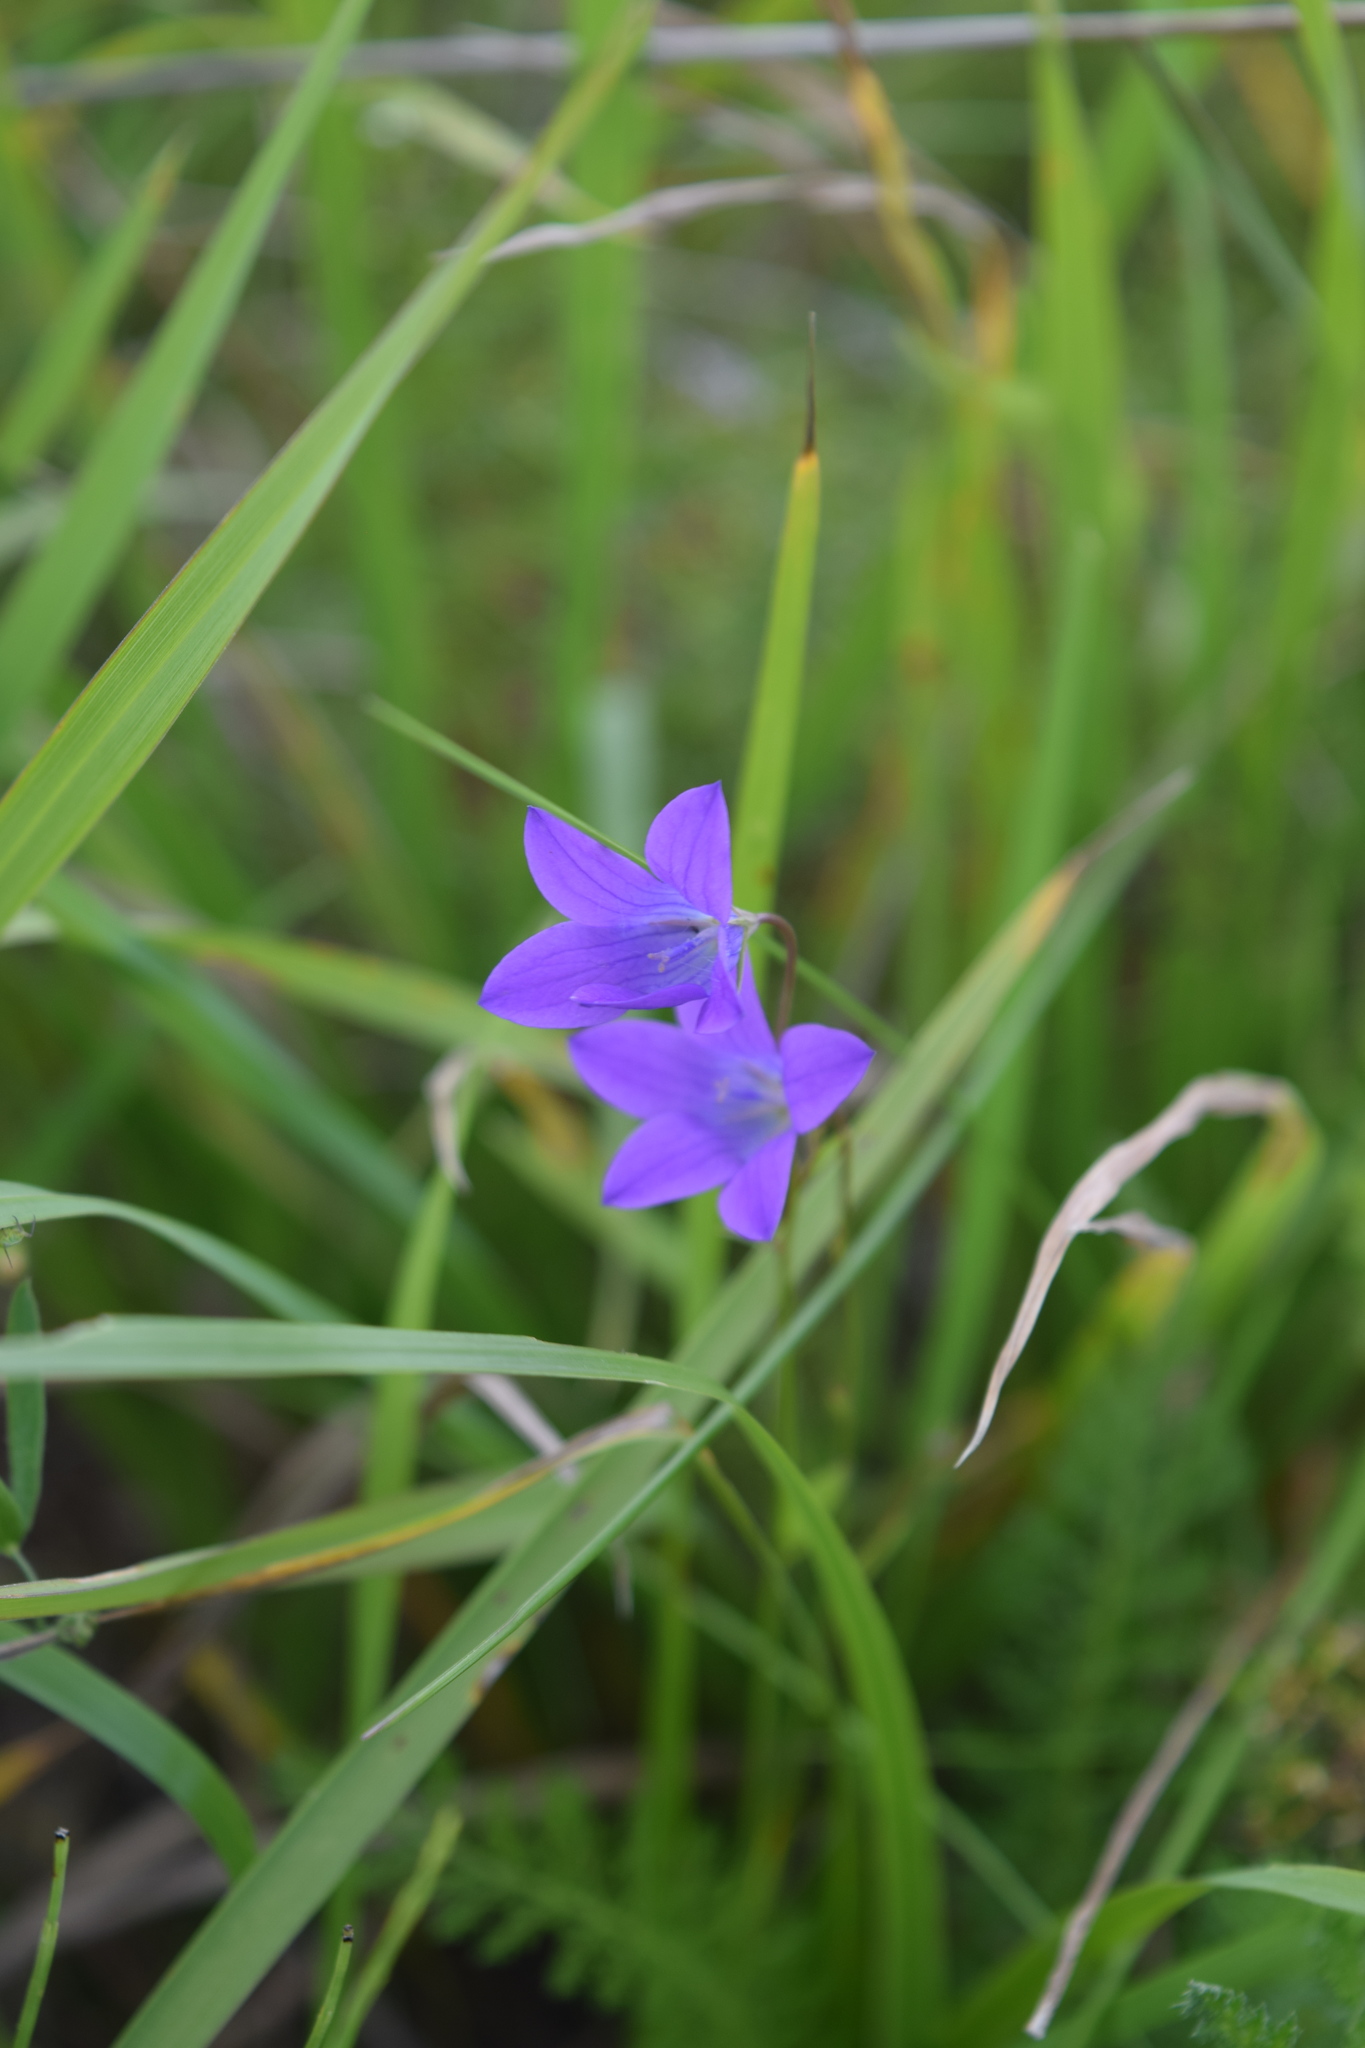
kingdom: Plantae
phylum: Tracheophyta
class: Magnoliopsida
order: Asterales
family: Campanulaceae
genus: Campanula
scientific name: Campanula patula
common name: Spreading bellflower
